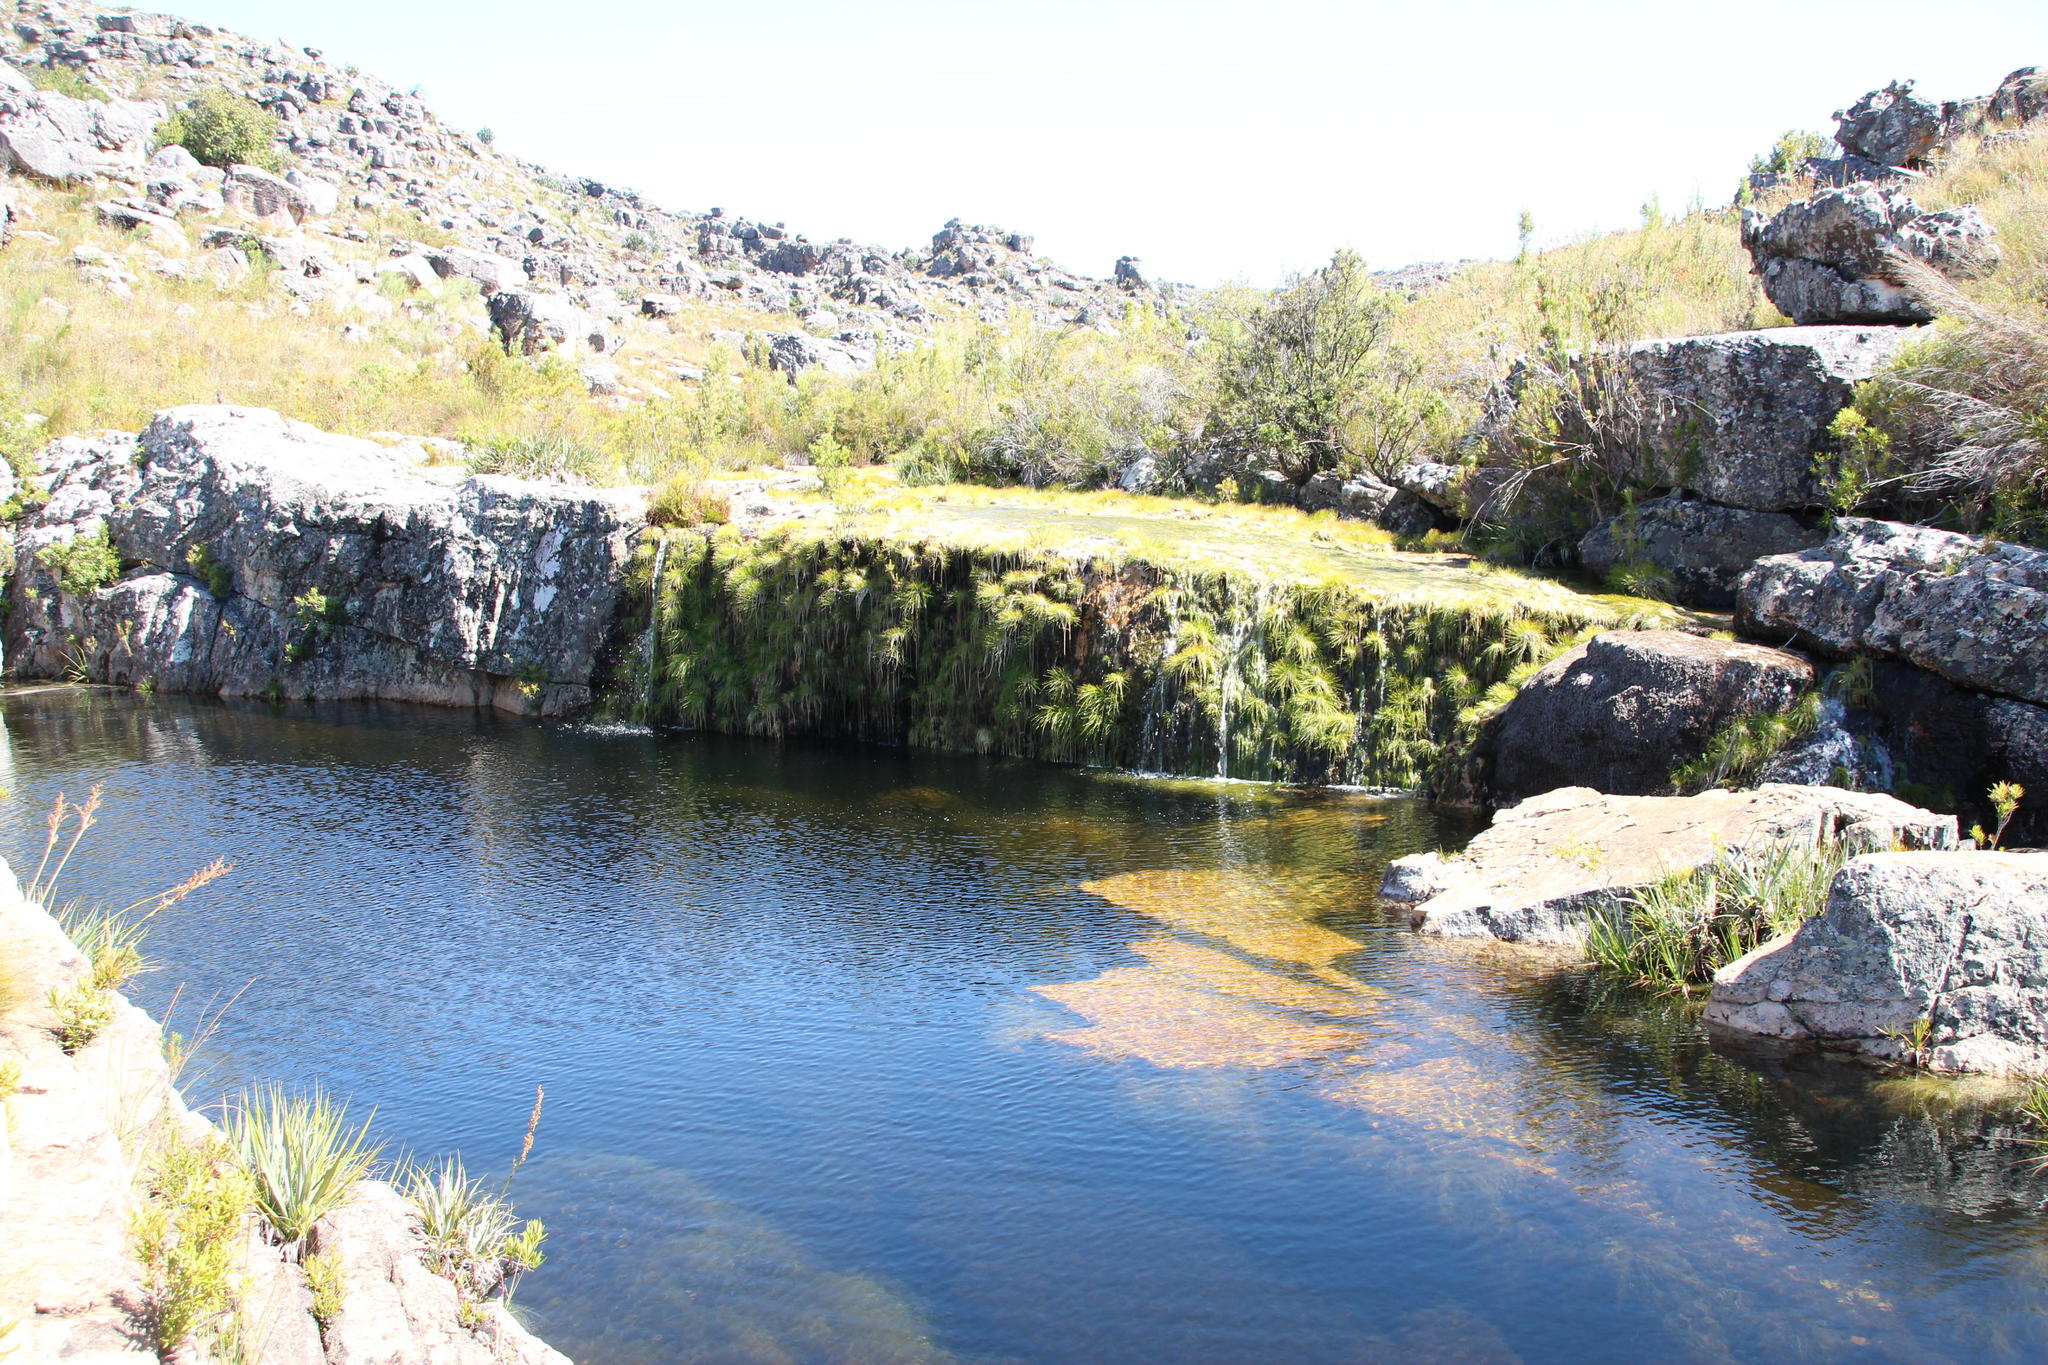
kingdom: Plantae
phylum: Tracheophyta
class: Liliopsida
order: Poales
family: Cyperaceae
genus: Isolepis
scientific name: Isolepis digitata
